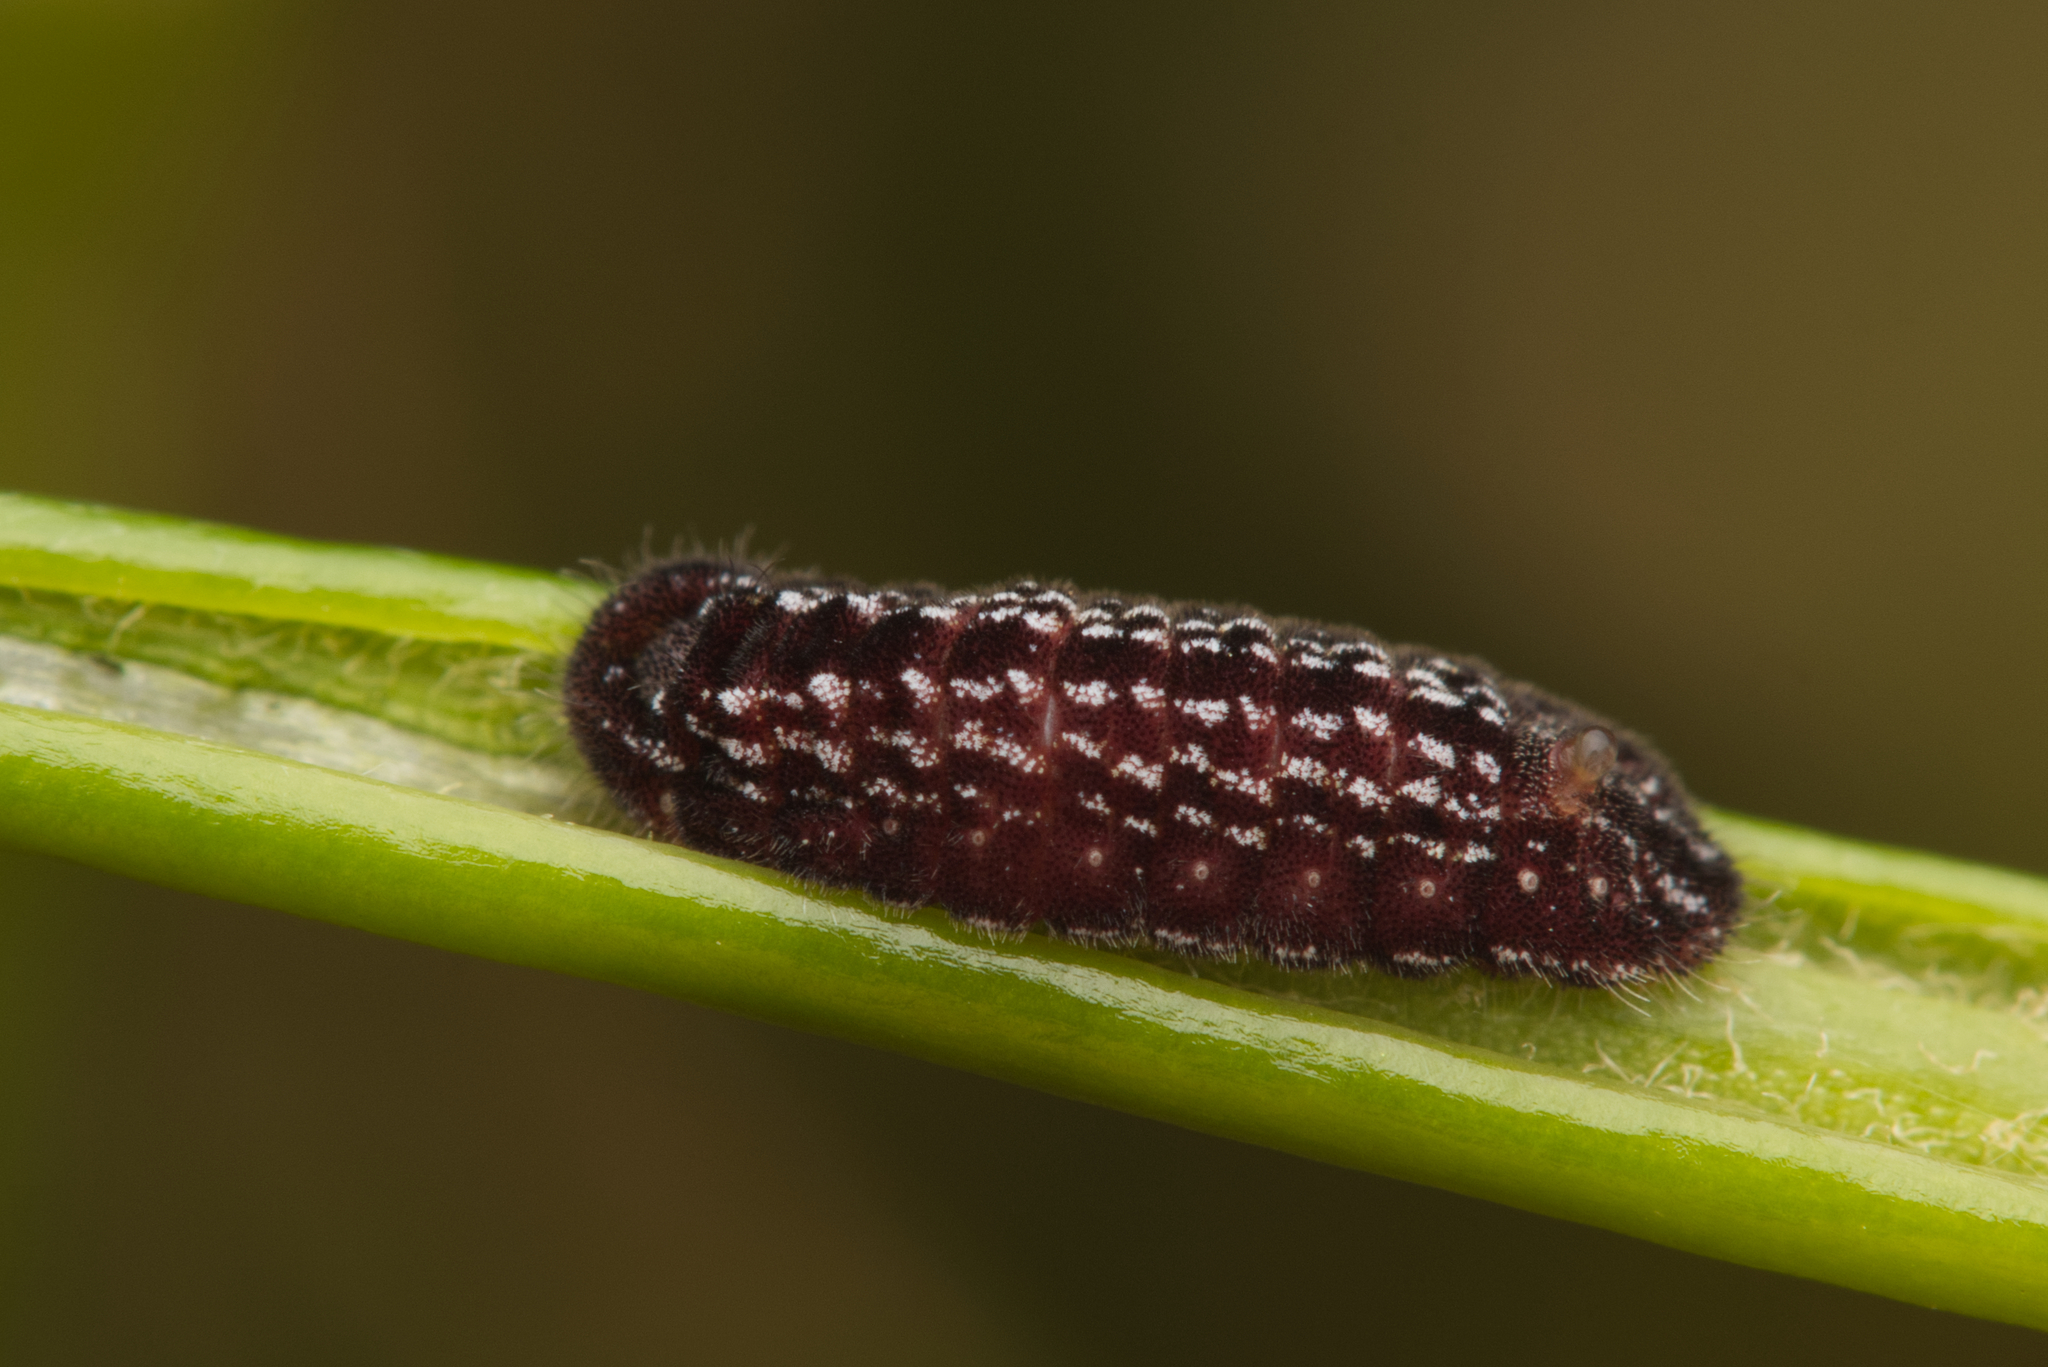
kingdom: Animalia
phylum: Arthropoda
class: Insecta
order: Lepidoptera
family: Lycaenidae
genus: Theclinesthes
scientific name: Theclinesthes onycha
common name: Cycad blue
